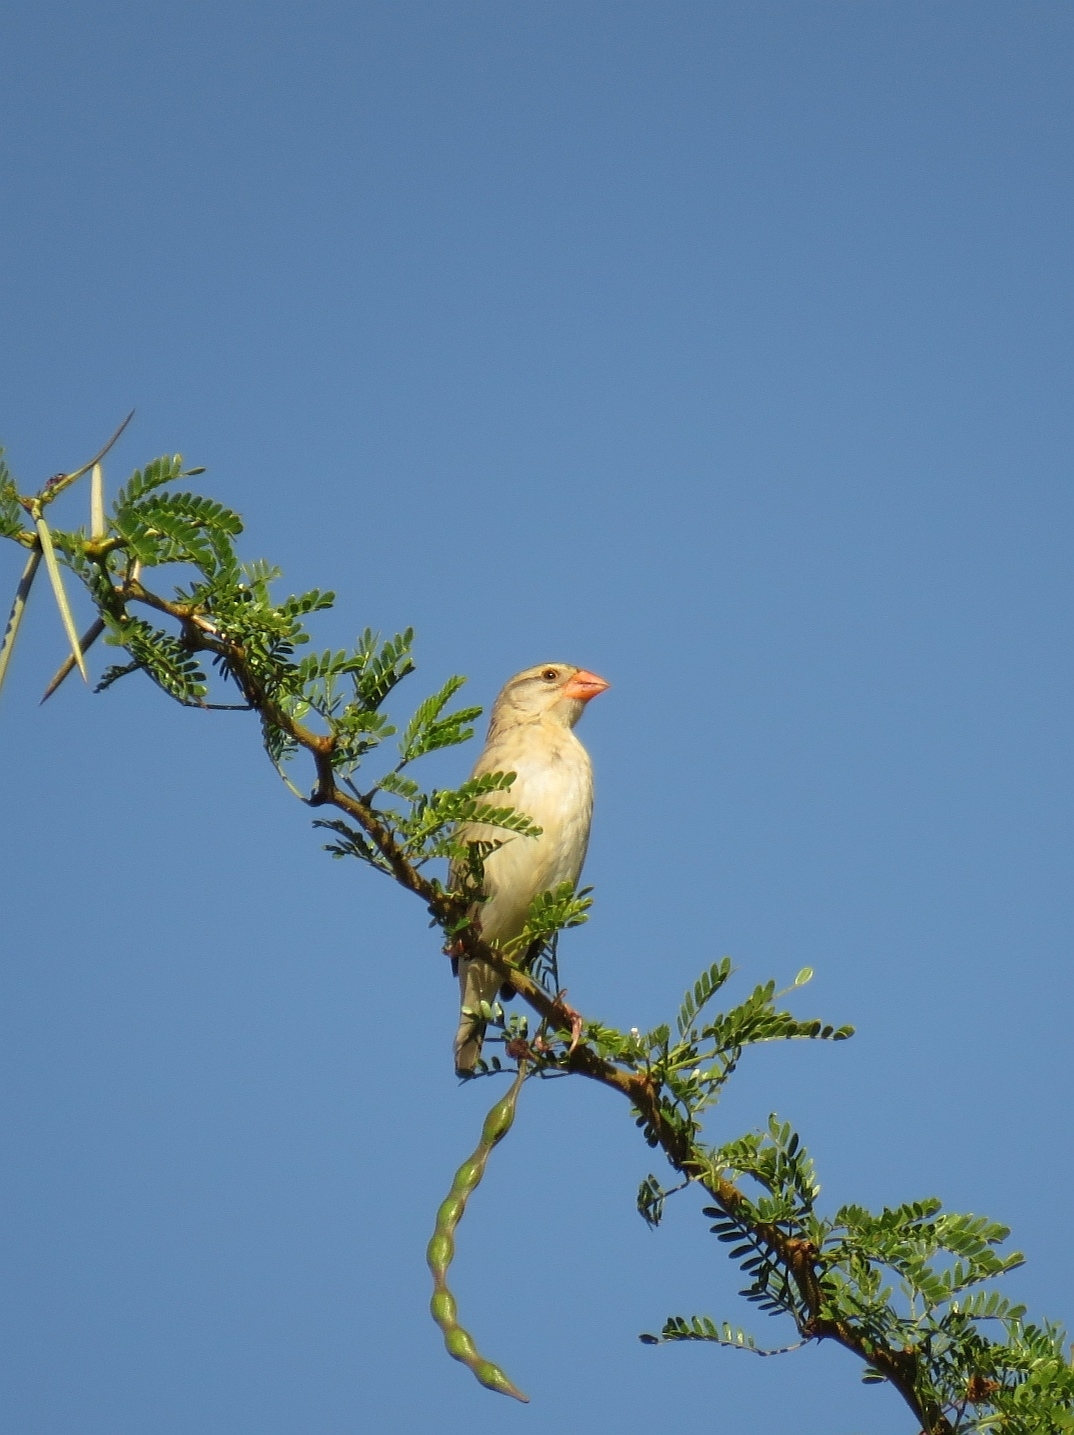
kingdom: Animalia
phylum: Chordata
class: Aves
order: Passeriformes
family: Ploceidae
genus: Quelea
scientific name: Quelea quelea
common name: Red-billed quelea
